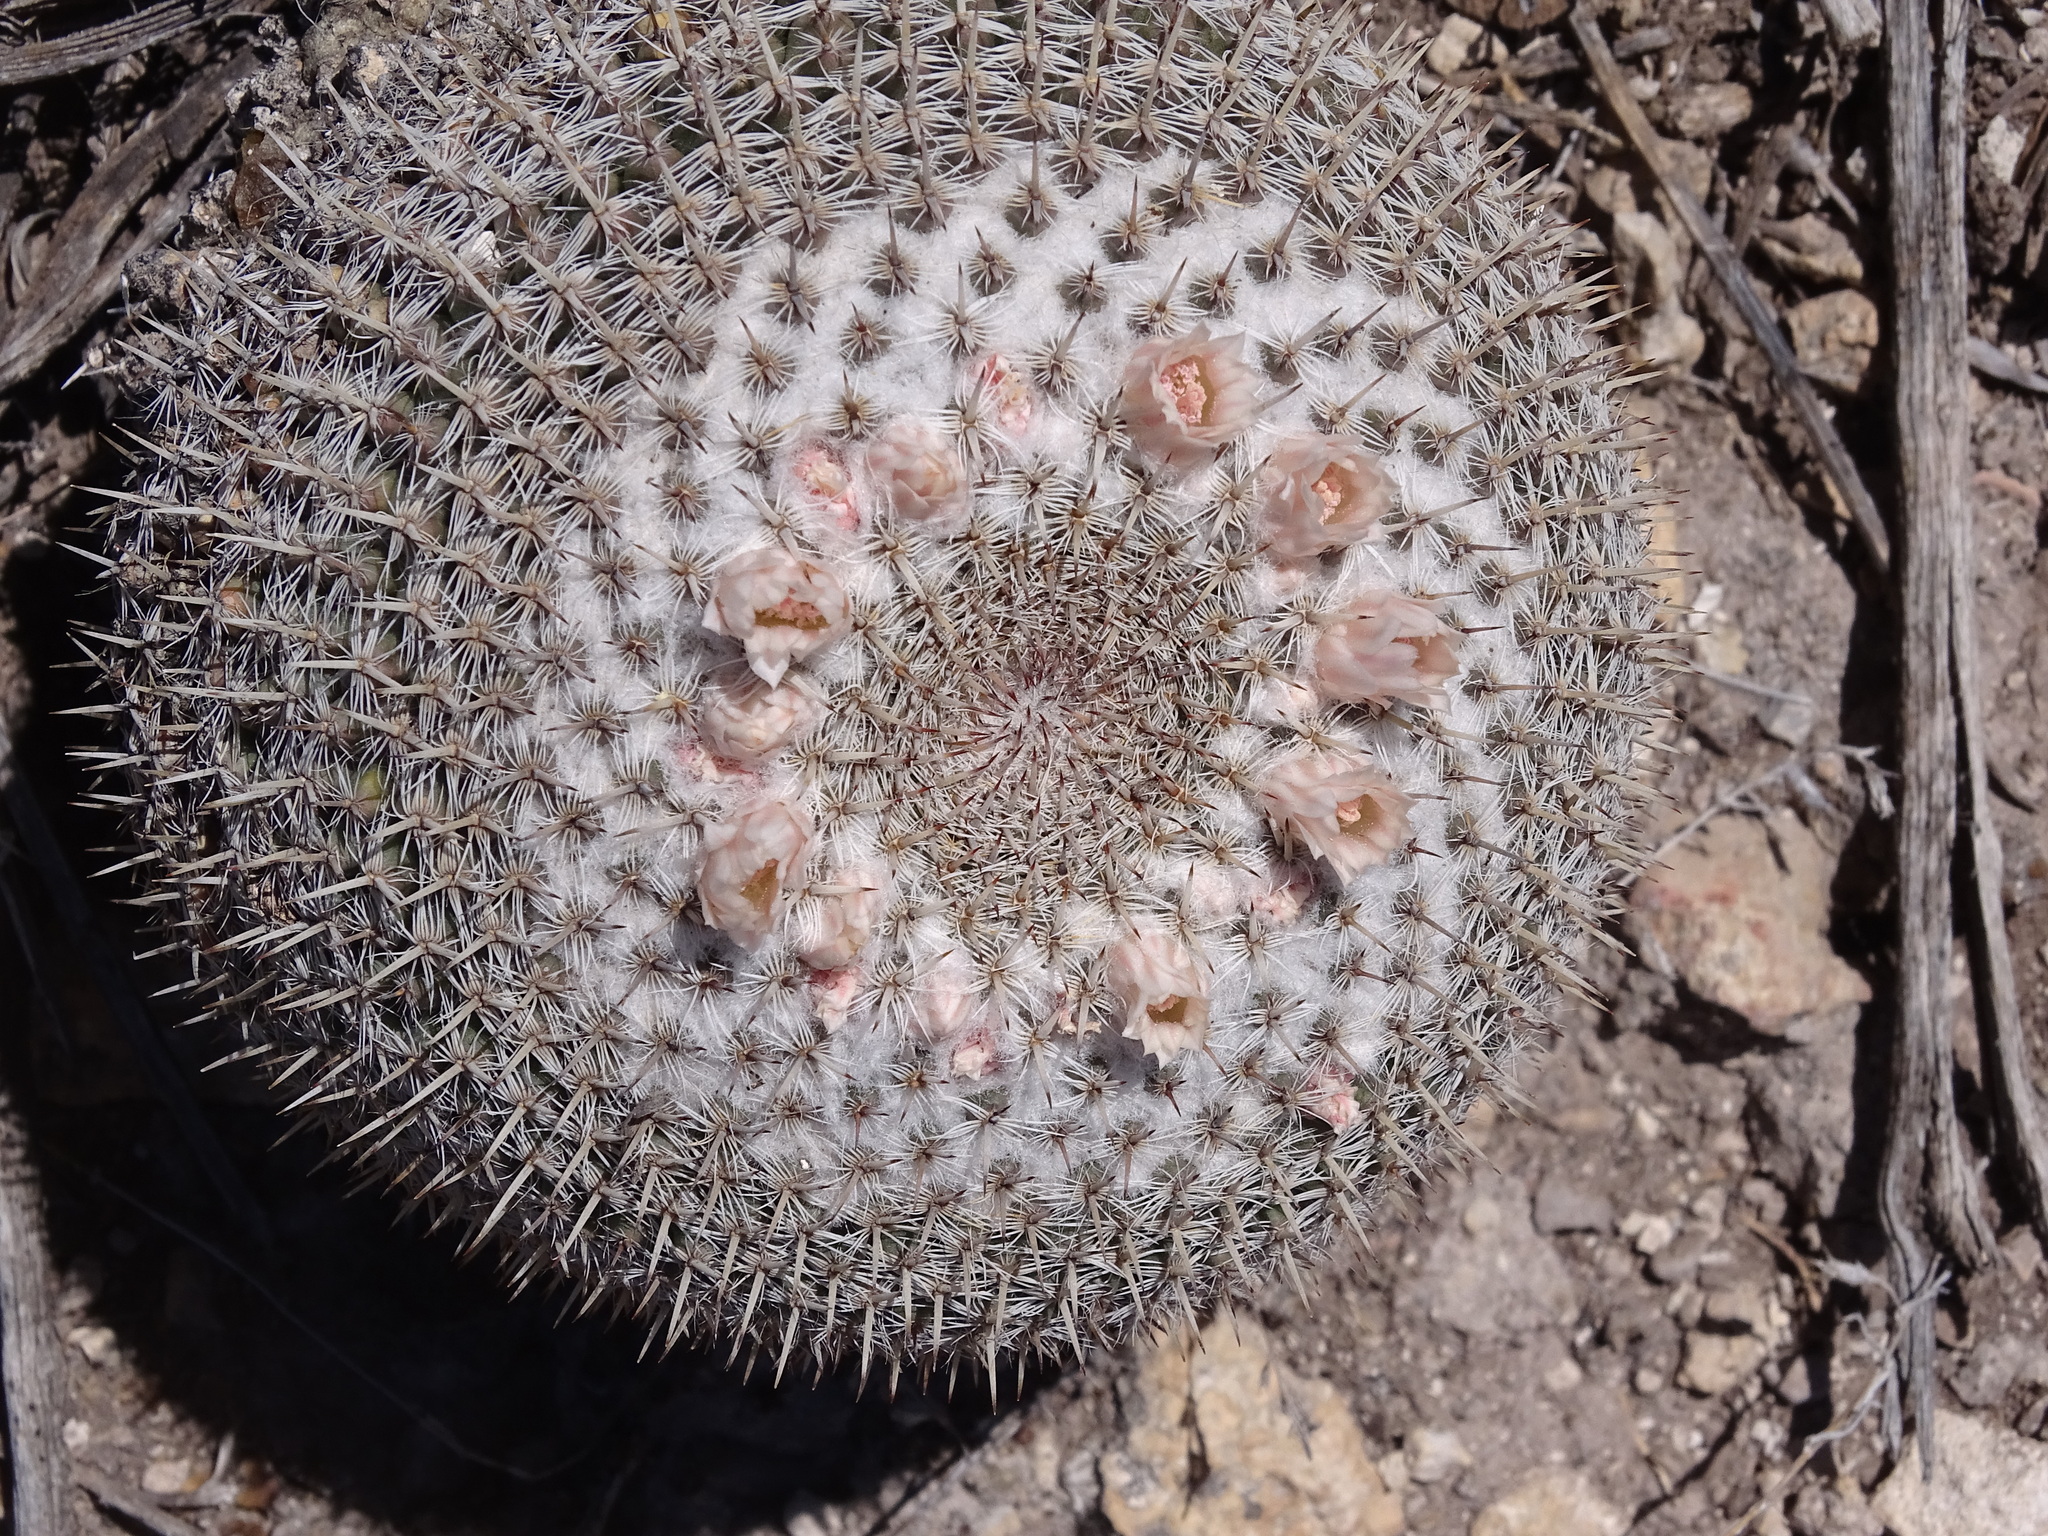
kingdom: Plantae
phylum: Tracheophyta
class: Magnoliopsida
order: Caryophyllales
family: Cactaceae
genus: Mammillaria
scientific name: Mammillaria formosa
